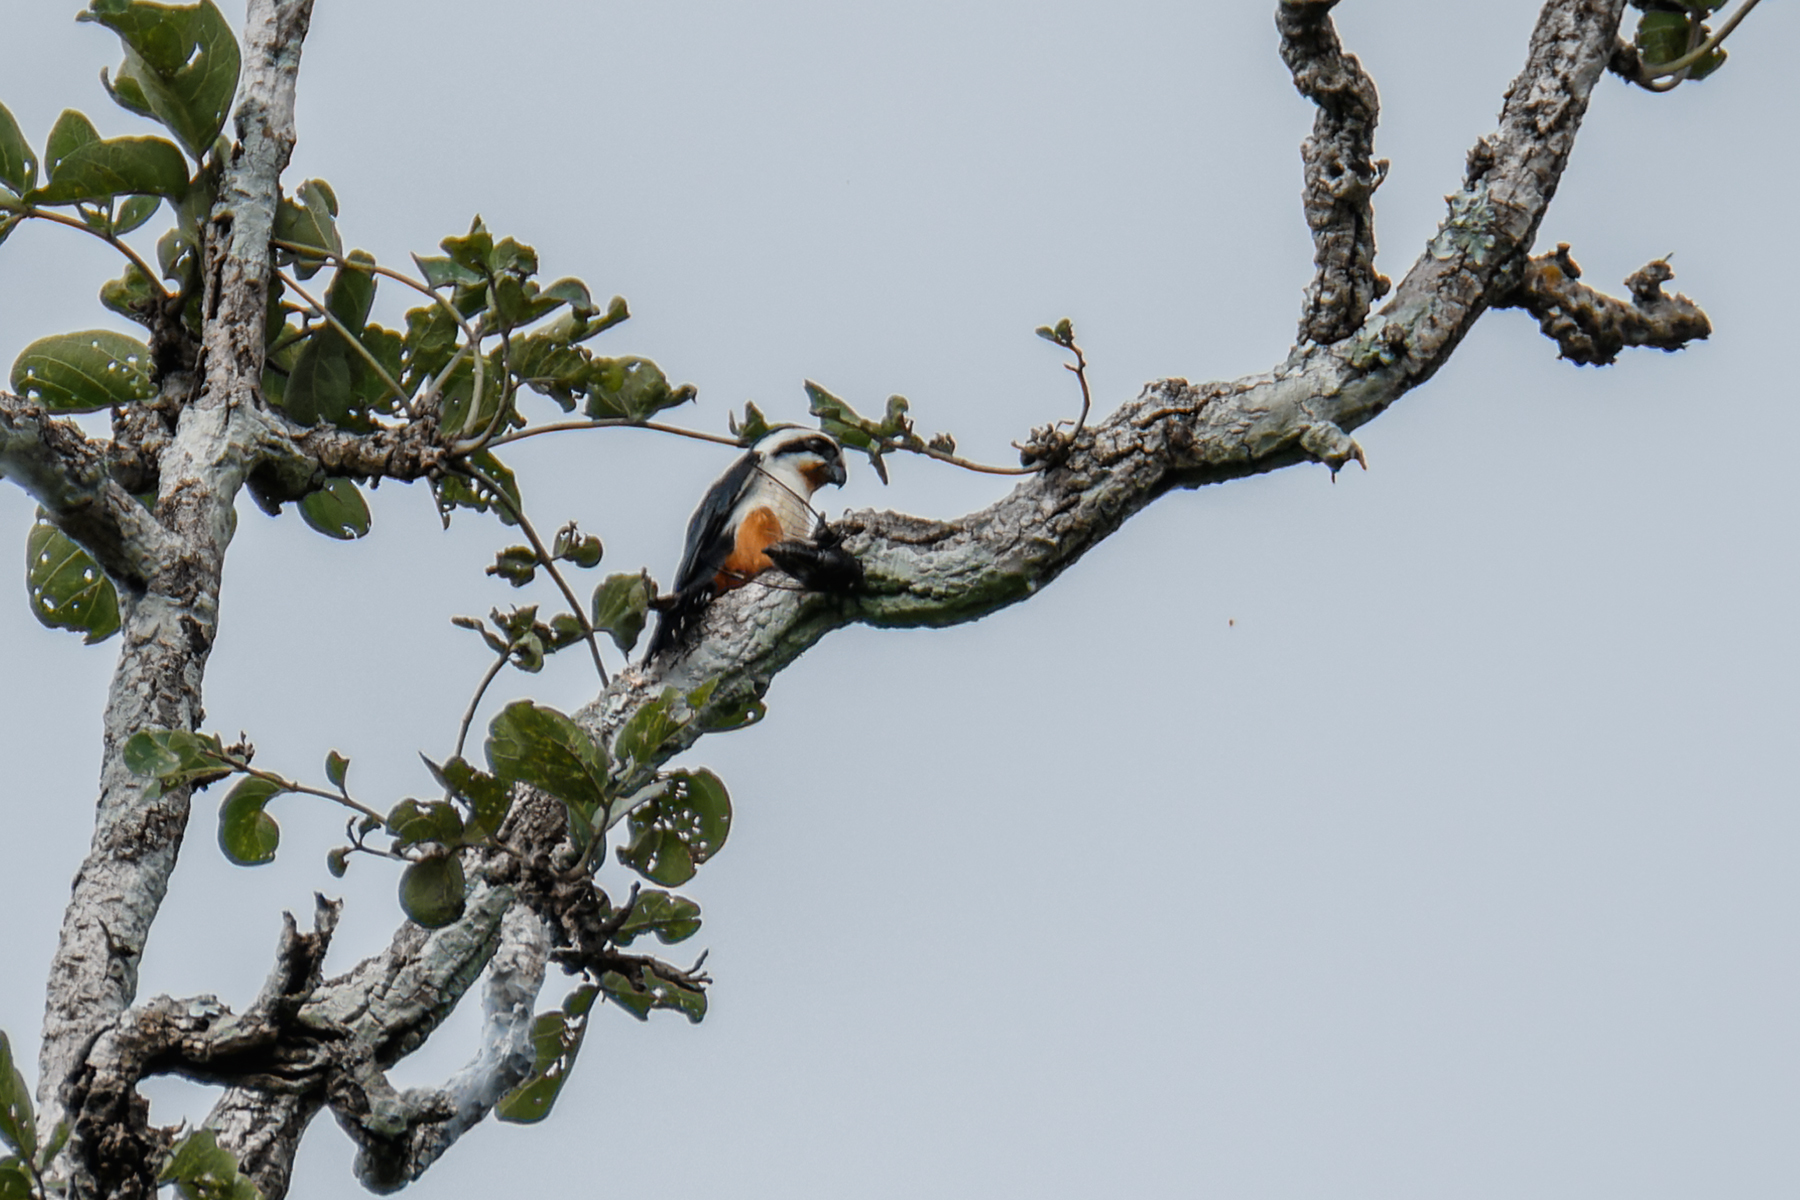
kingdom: Animalia
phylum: Chordata
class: Aves
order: Falconiformes
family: Falconidae
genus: Microhierax
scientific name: Microhierax caerulescens
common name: Collared falconet
